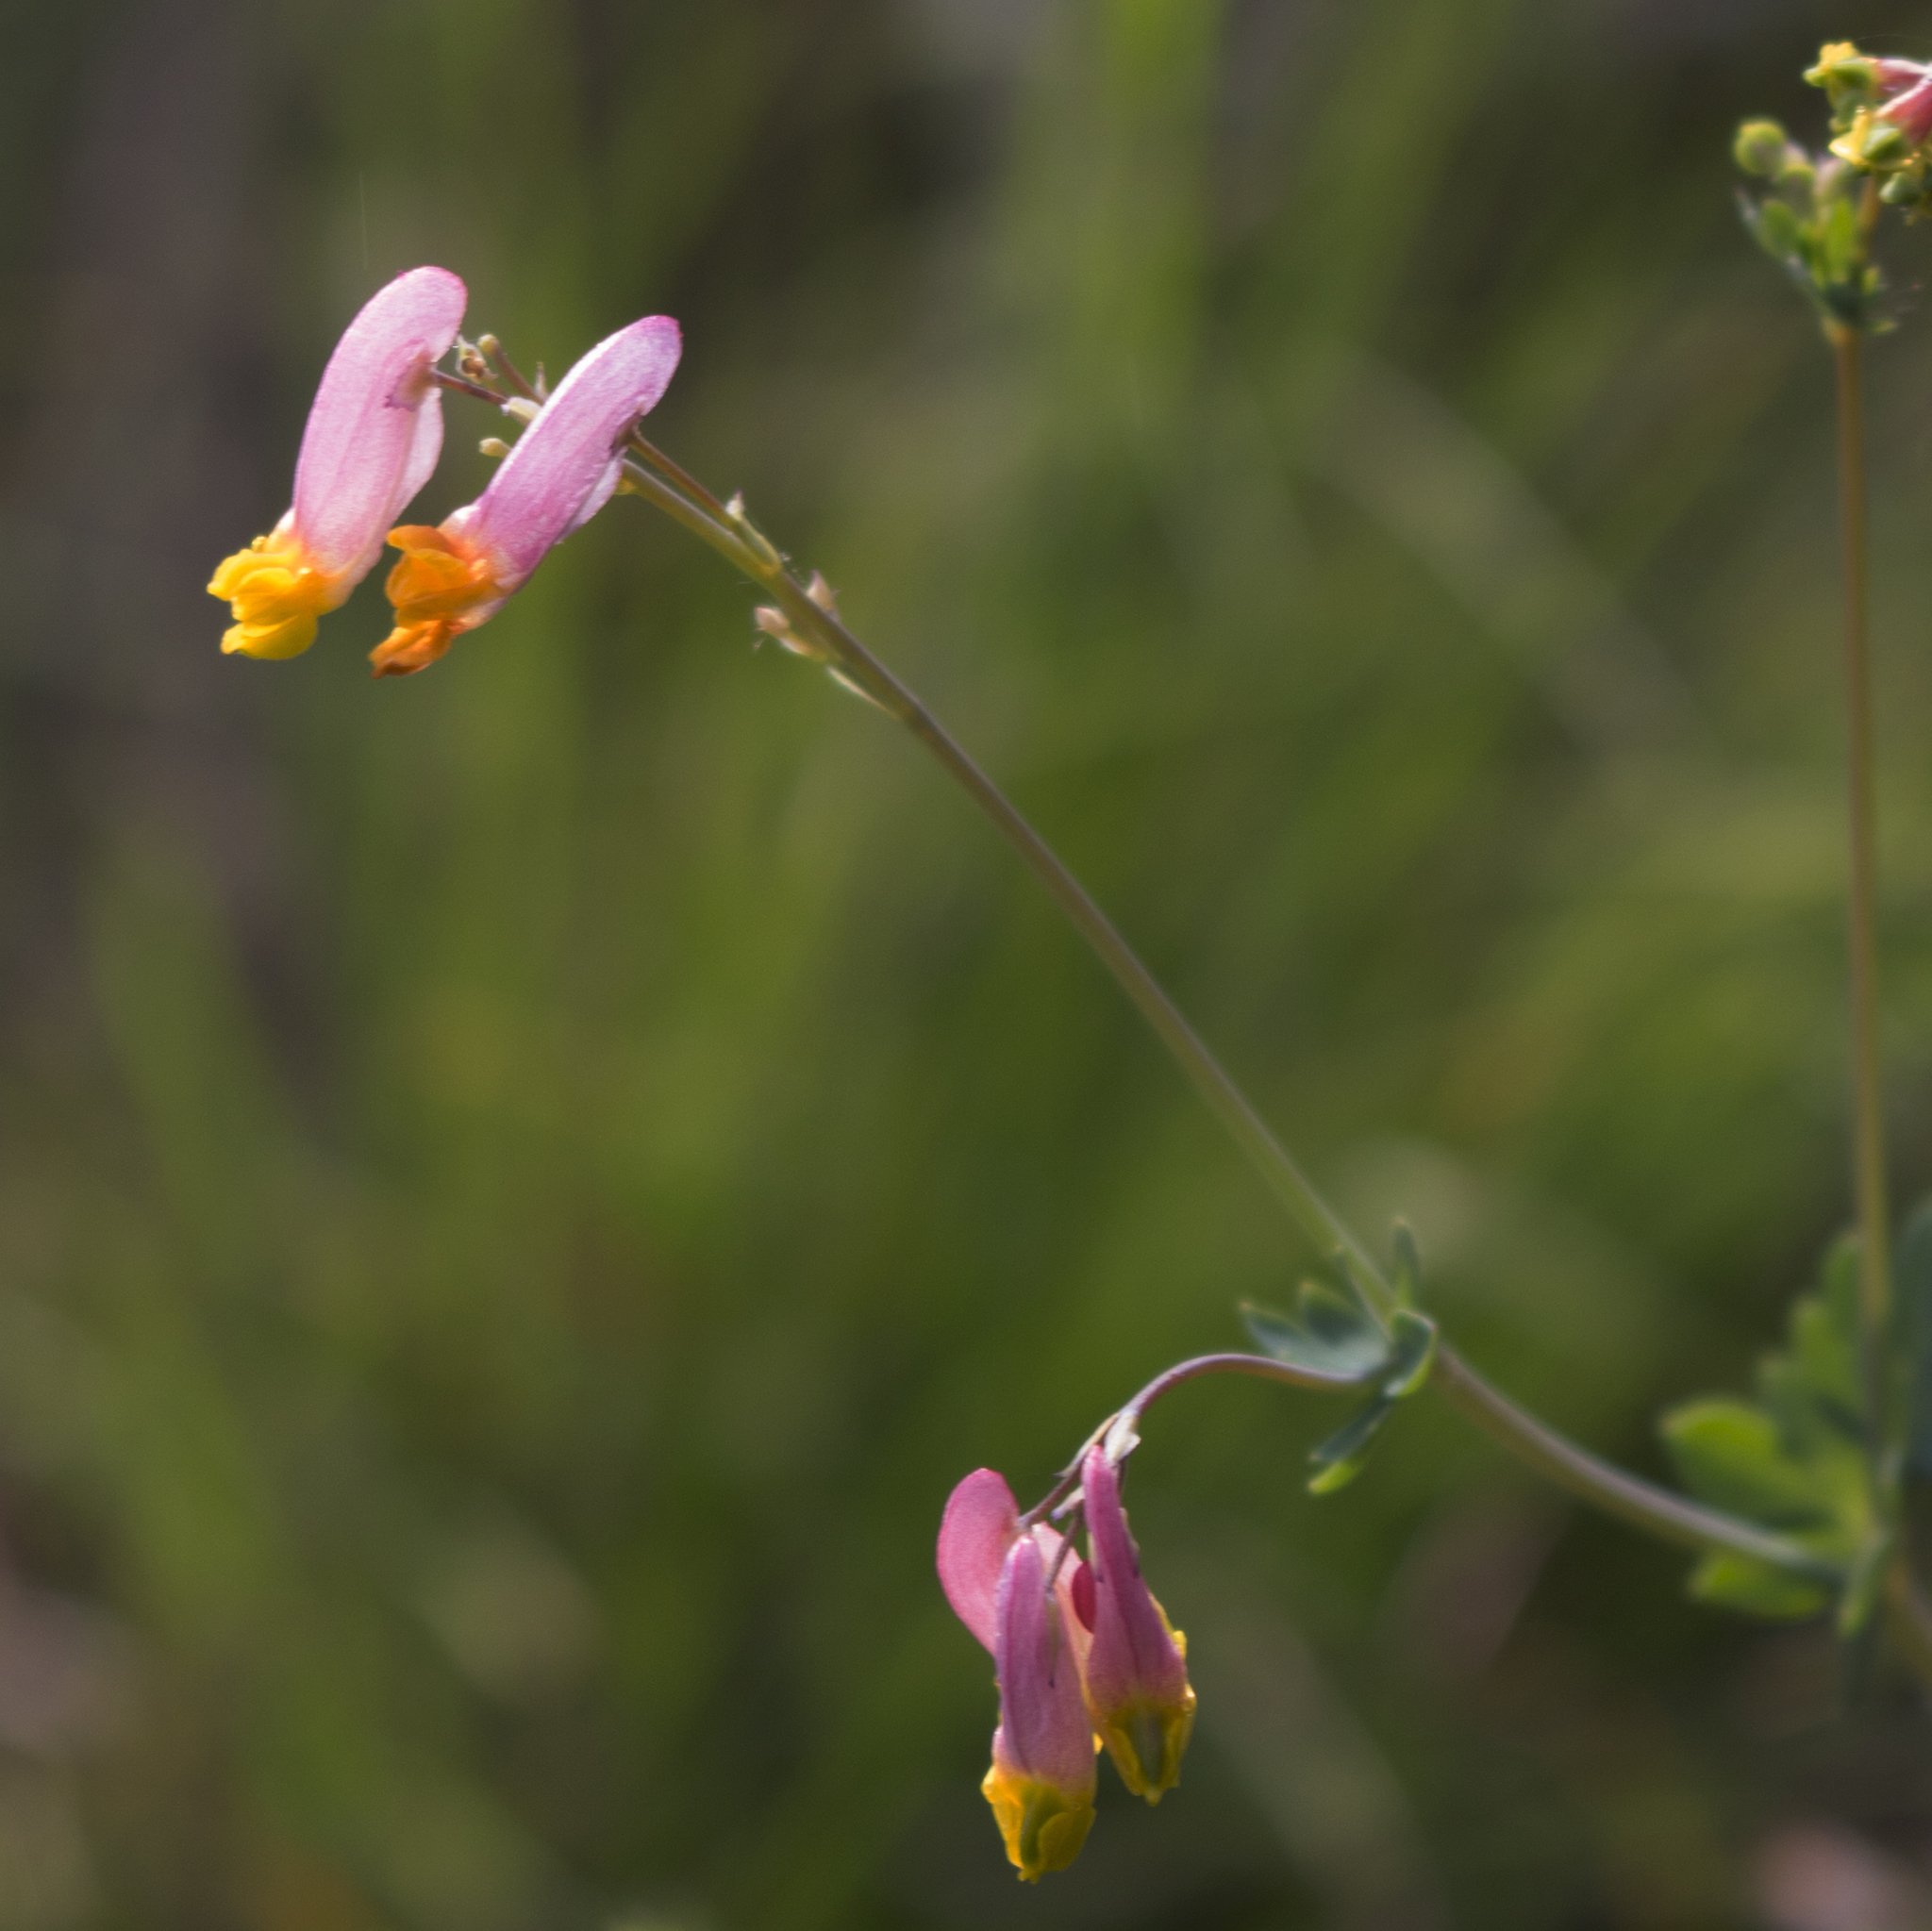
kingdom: Plantae
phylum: Tracheophyta
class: Magnoliopsida
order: Ranunculales
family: Papaveraceae
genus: Capnoides
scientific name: Capnoides sempervirens
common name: Rock harlequin
